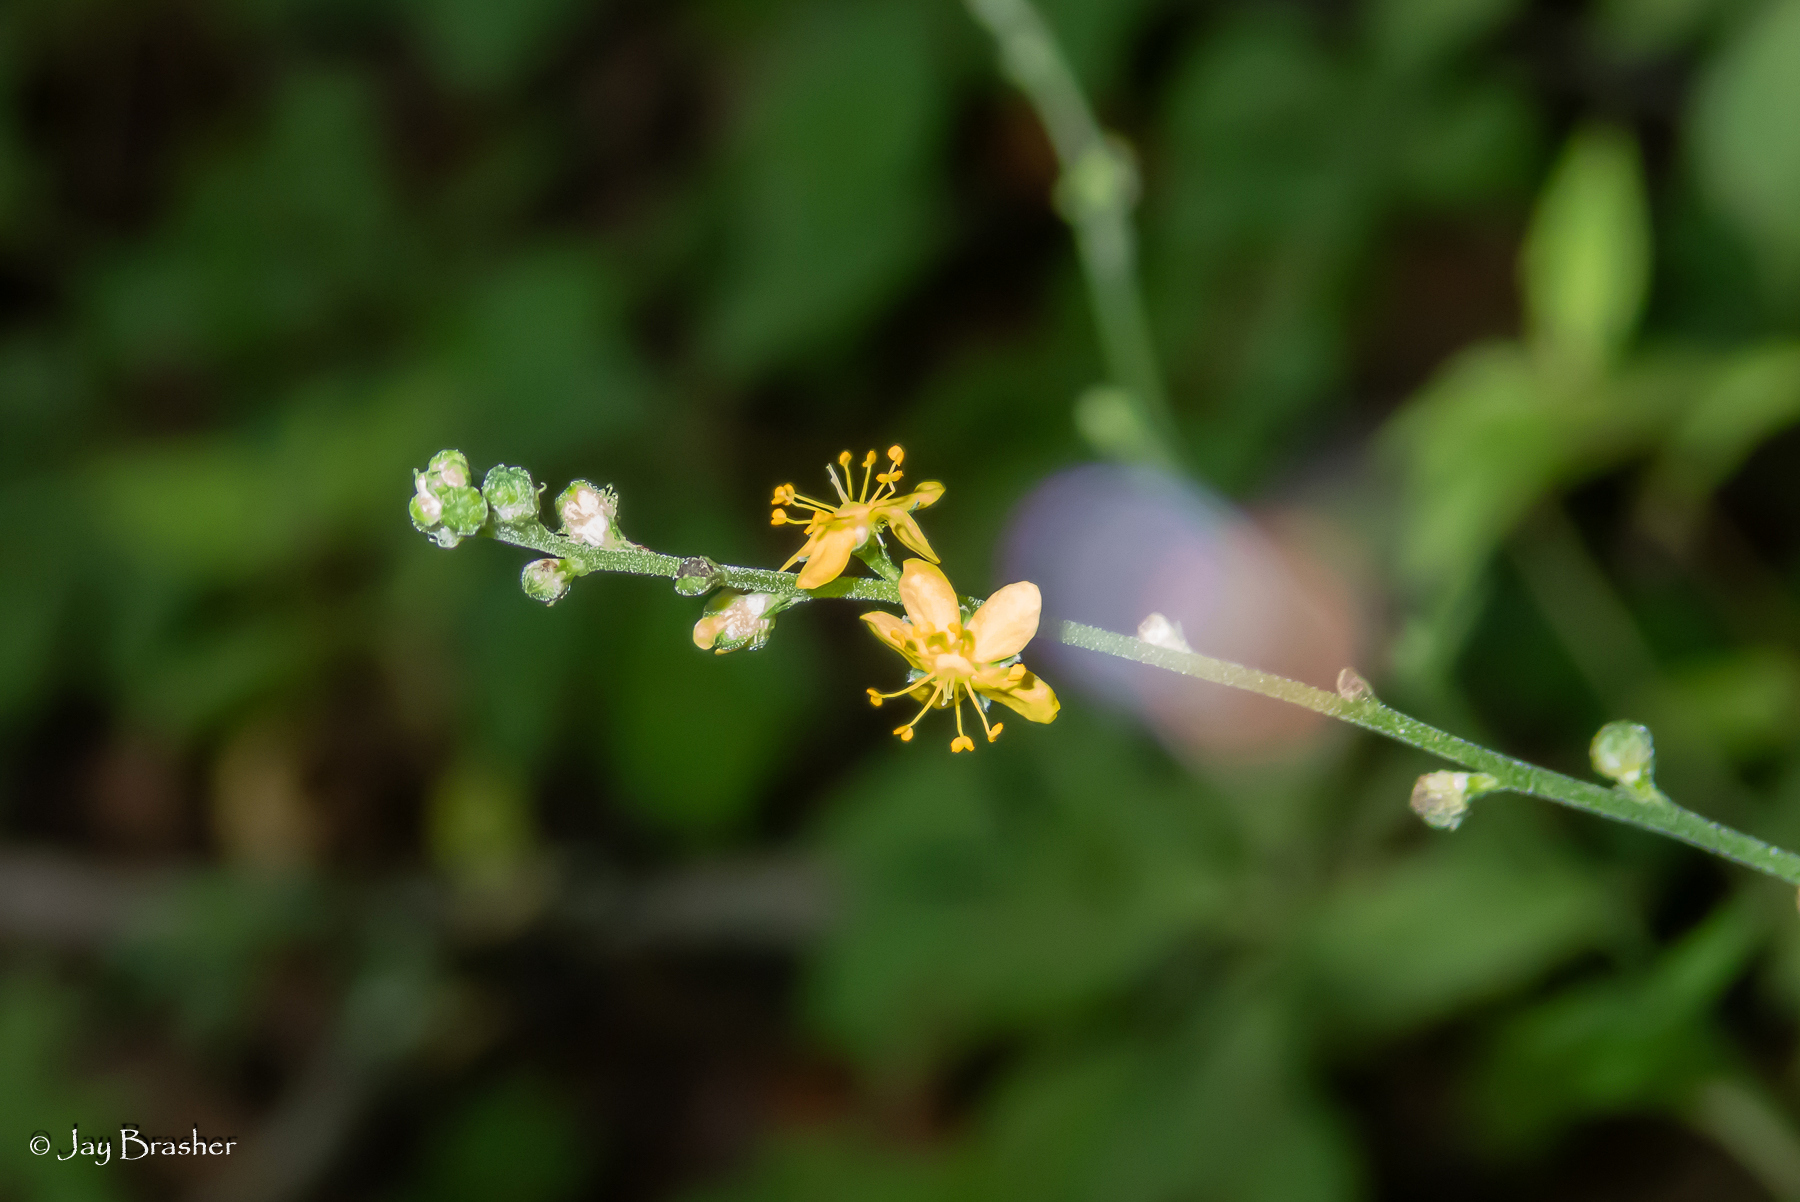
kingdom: Plantae
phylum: Tracheophyta
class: Magnoliopsida
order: Rosales
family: Rosaceae
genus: Agrimonia
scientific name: Agrimonia rostellata
